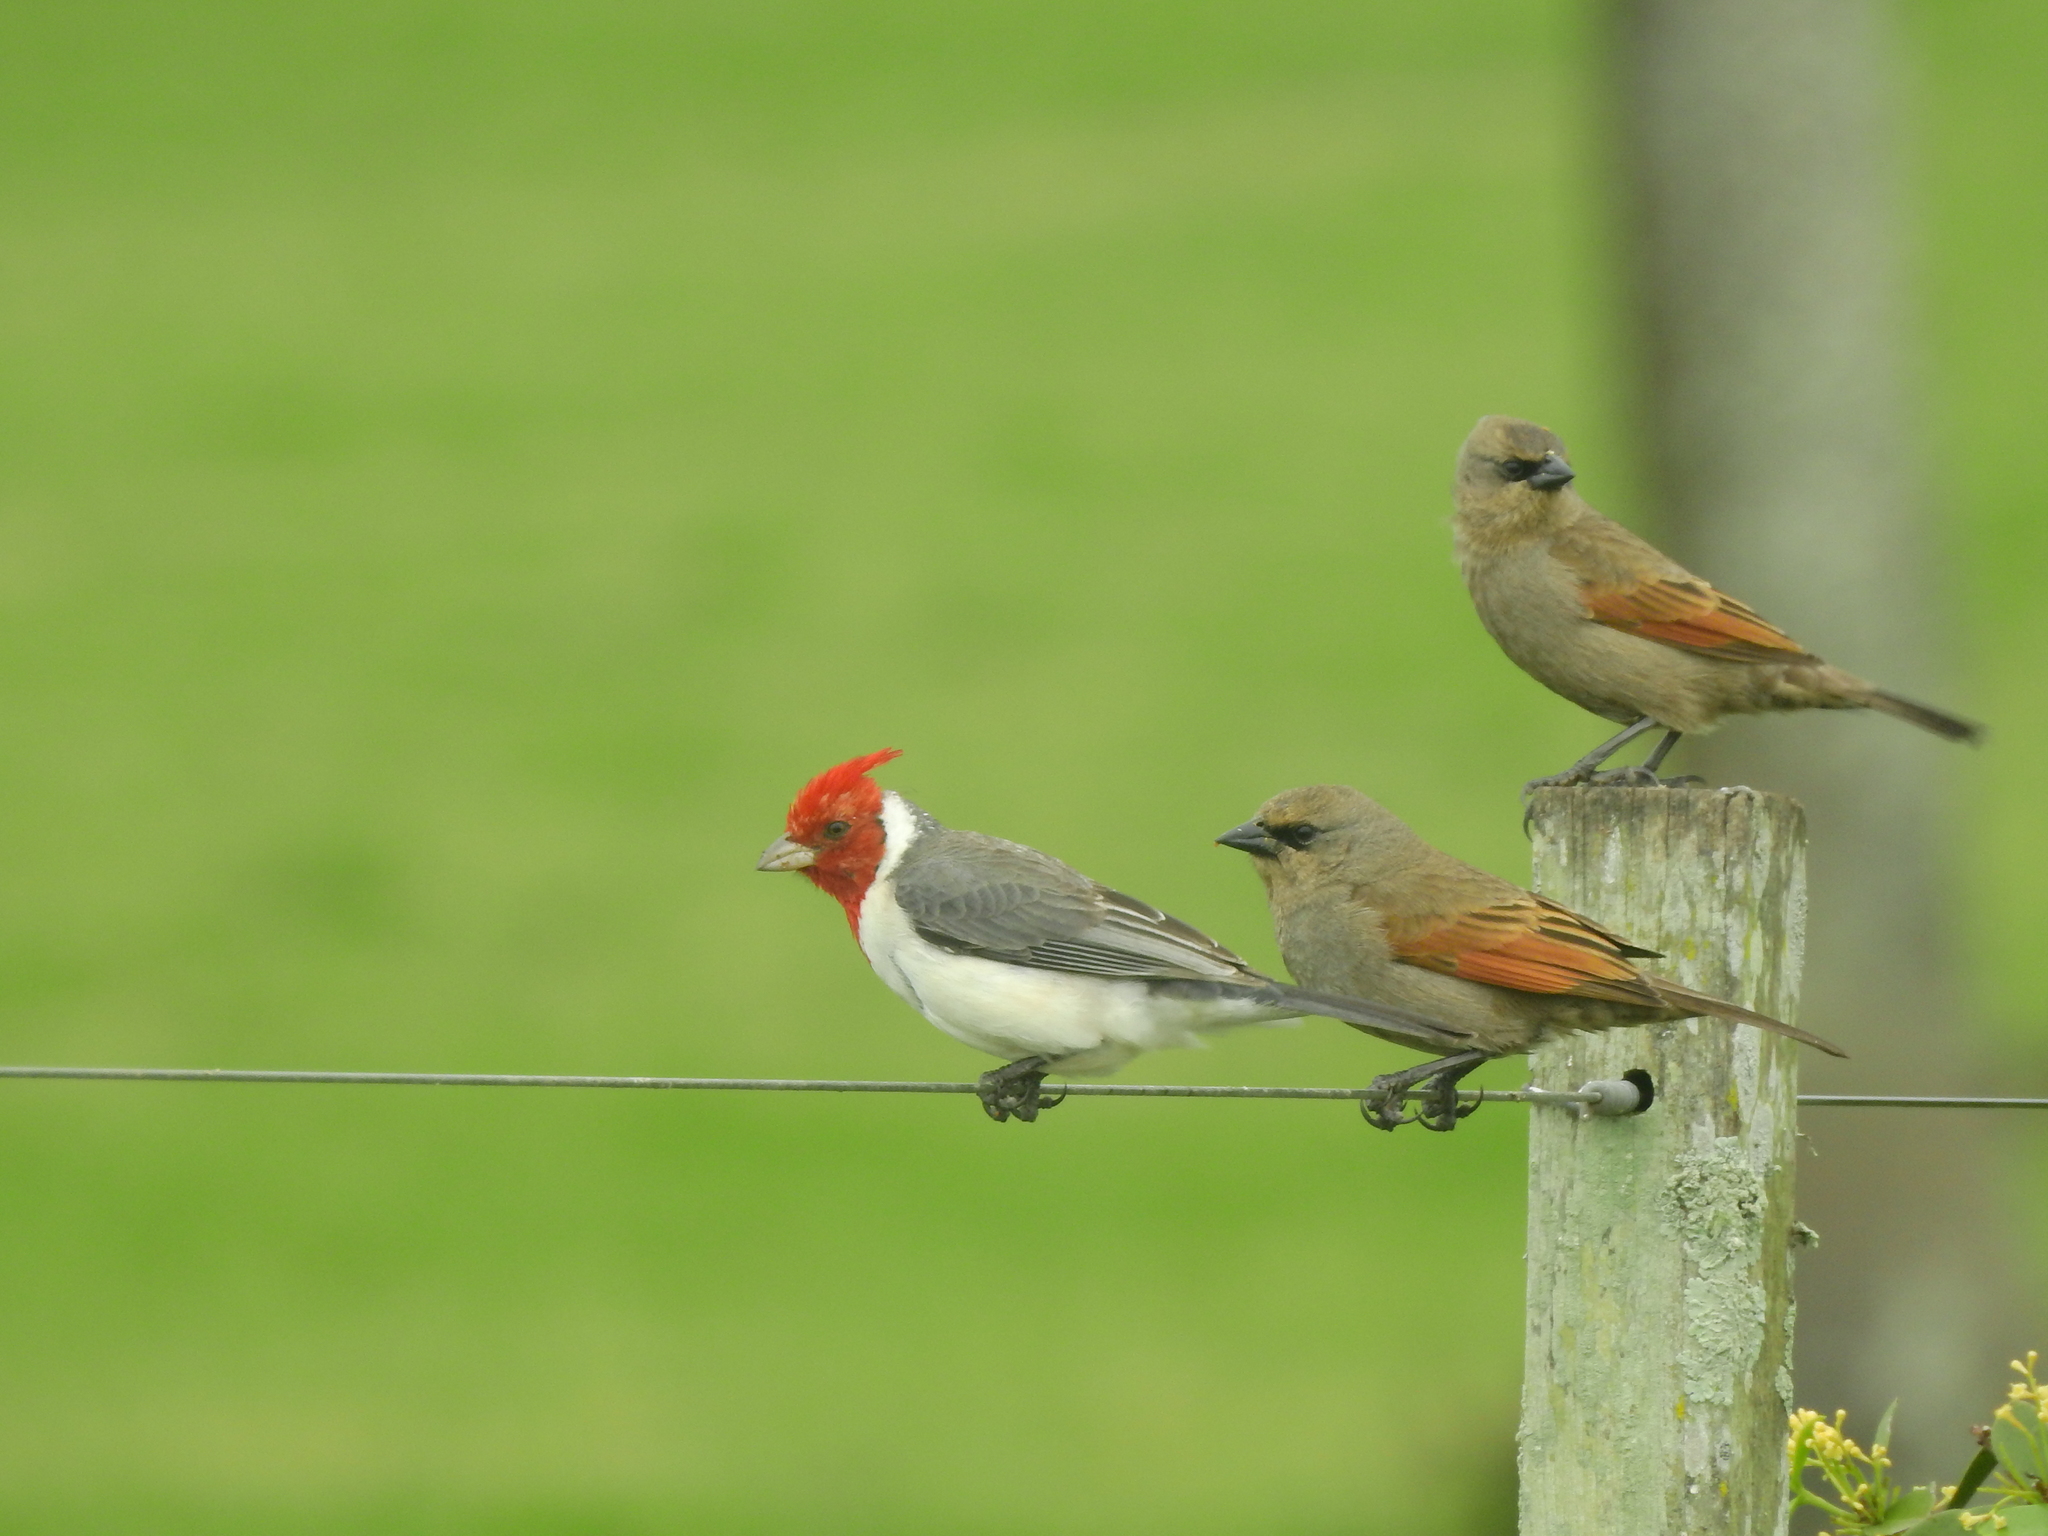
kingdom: Animalia
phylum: Chordata
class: Aves
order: Passeriformes
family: Icteridae
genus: Agelaioides
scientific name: Agelaioides badius
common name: Baywing
